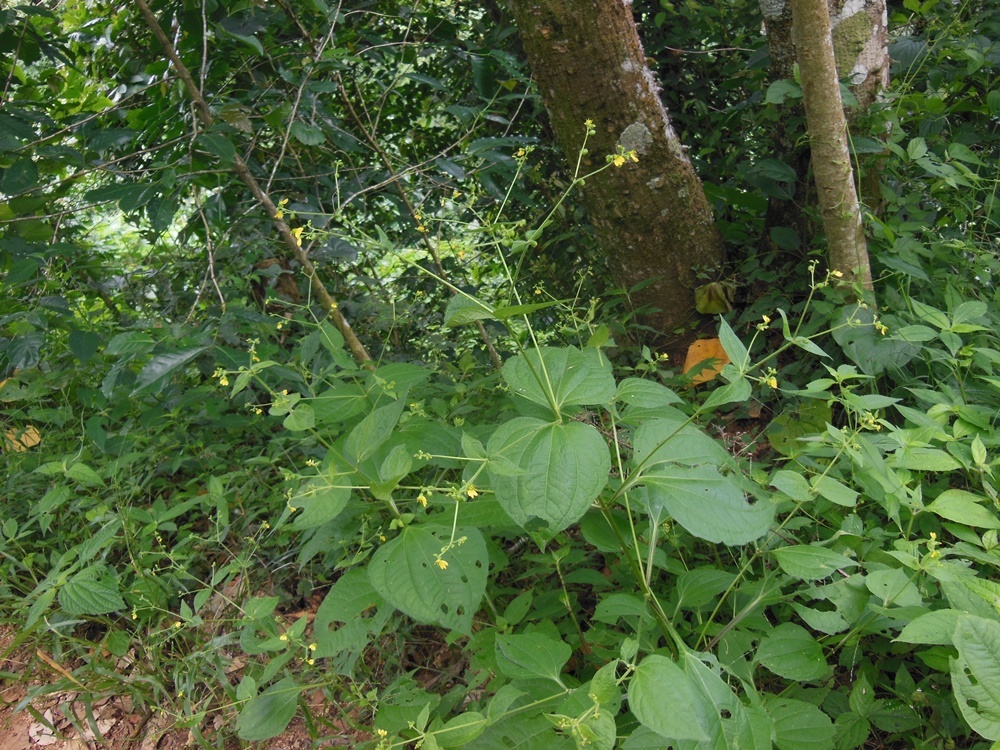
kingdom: Plantae
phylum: Tracheophyta
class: Magnoliopsida
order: Asterales
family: Asteraceae
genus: Milleria
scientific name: Milleria quinqueflora
